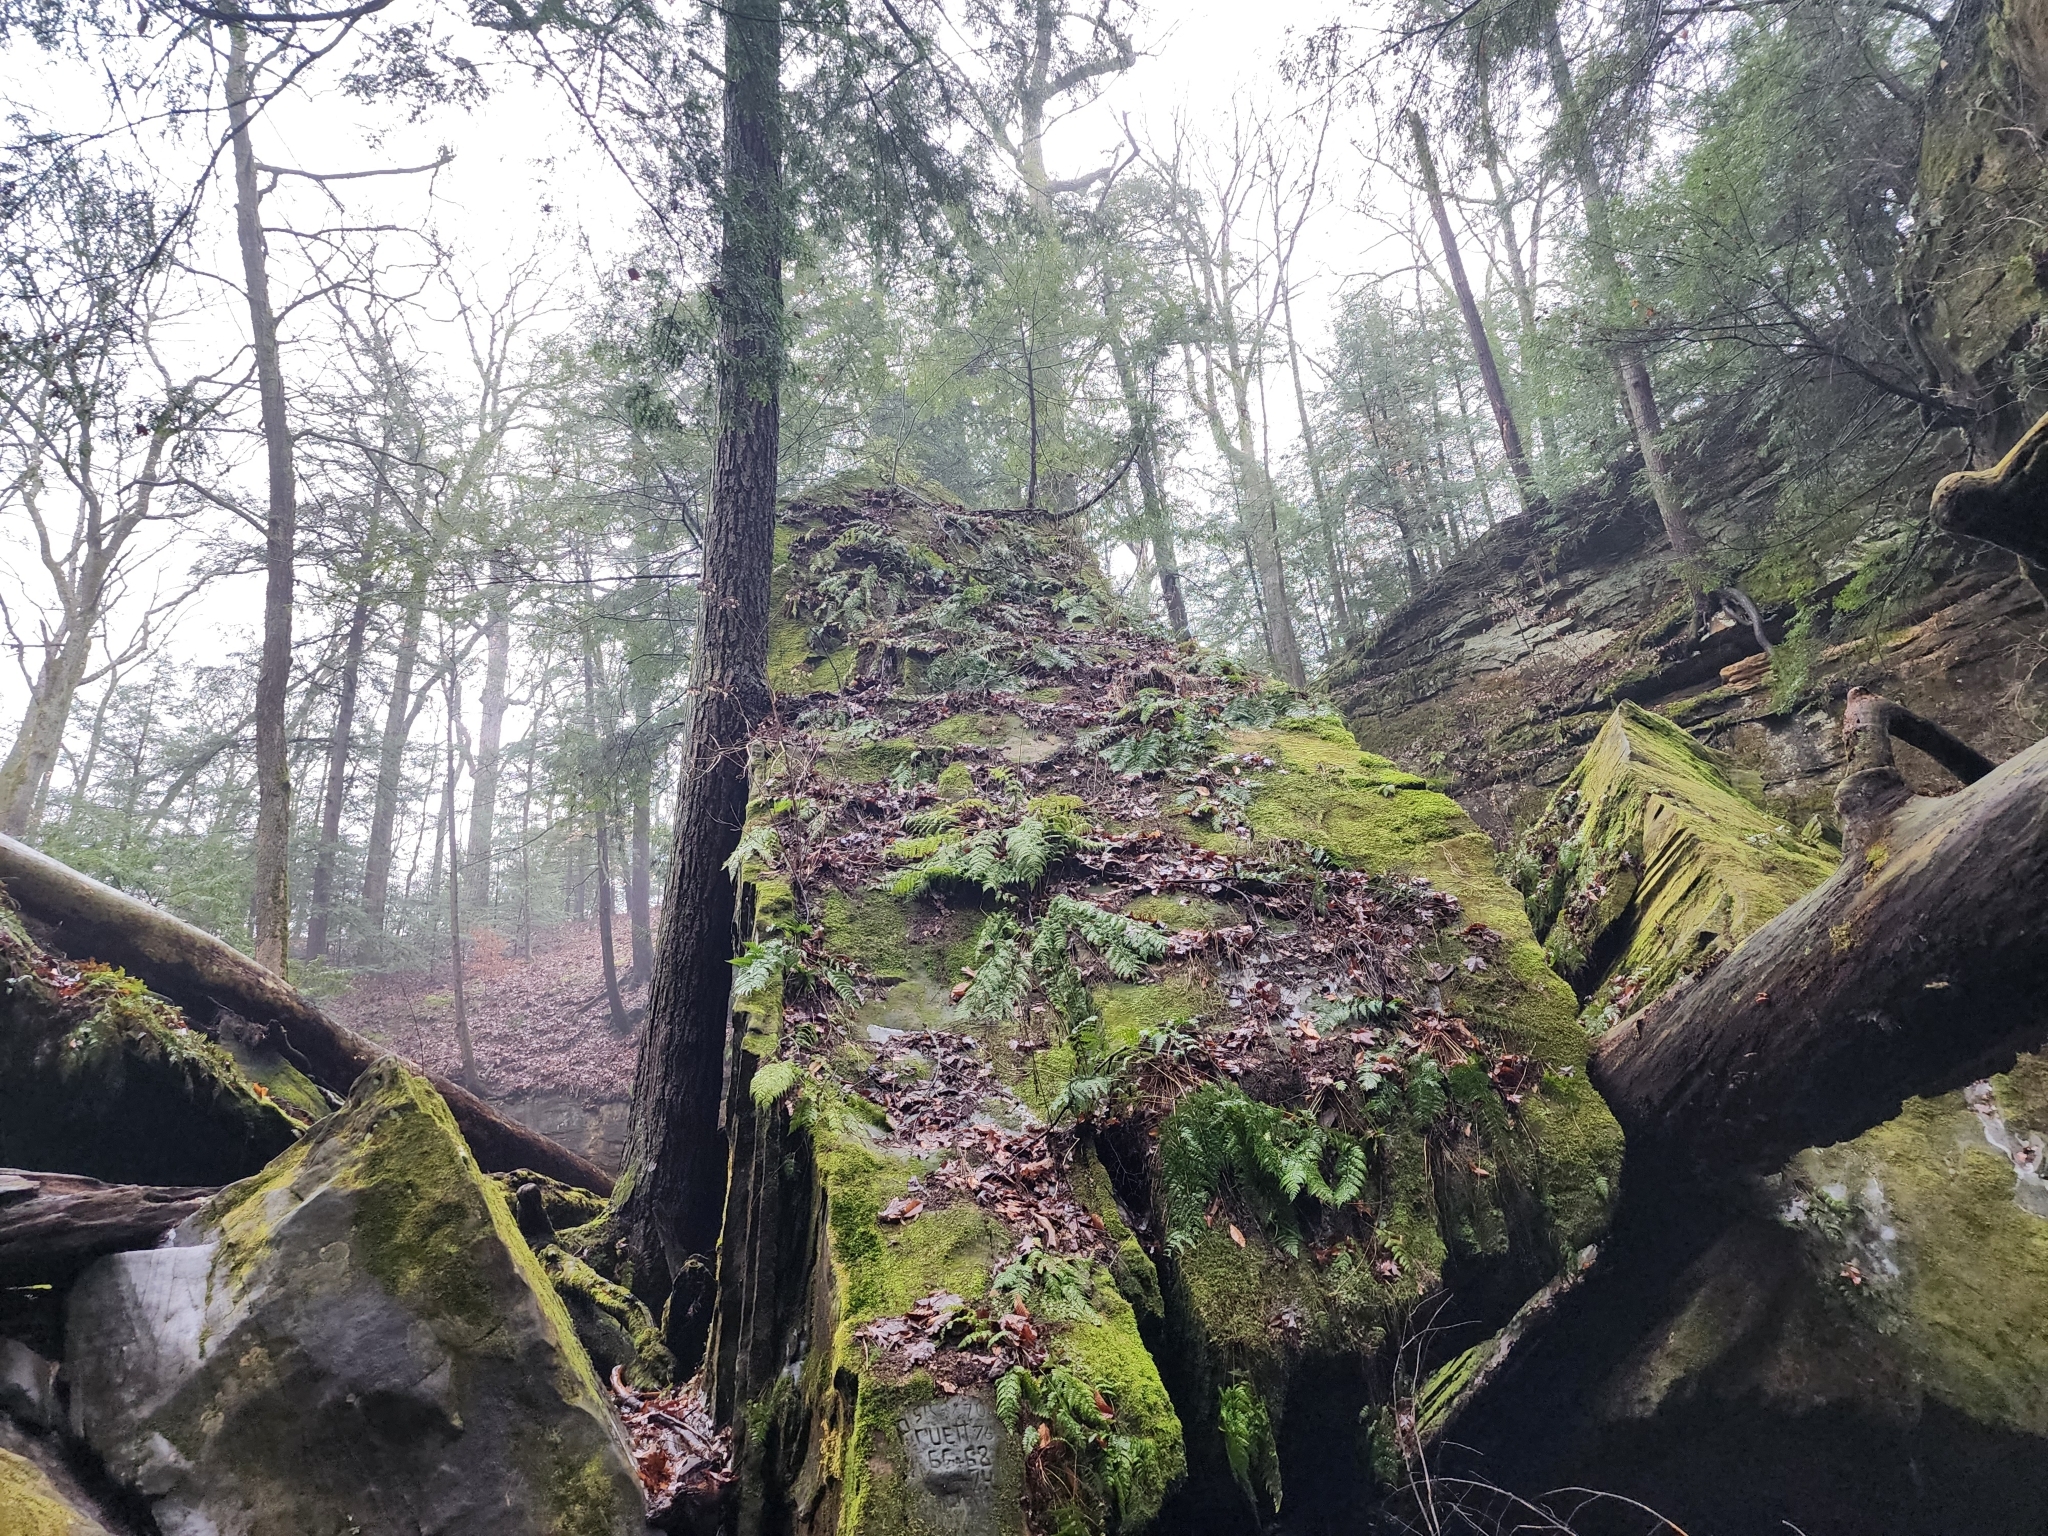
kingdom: Plantae
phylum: Tracheophyta
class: Pinopsida
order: Pinales
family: Pinaceae
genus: Tsuga
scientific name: Tsuga canadensis
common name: Eastern hemlock
